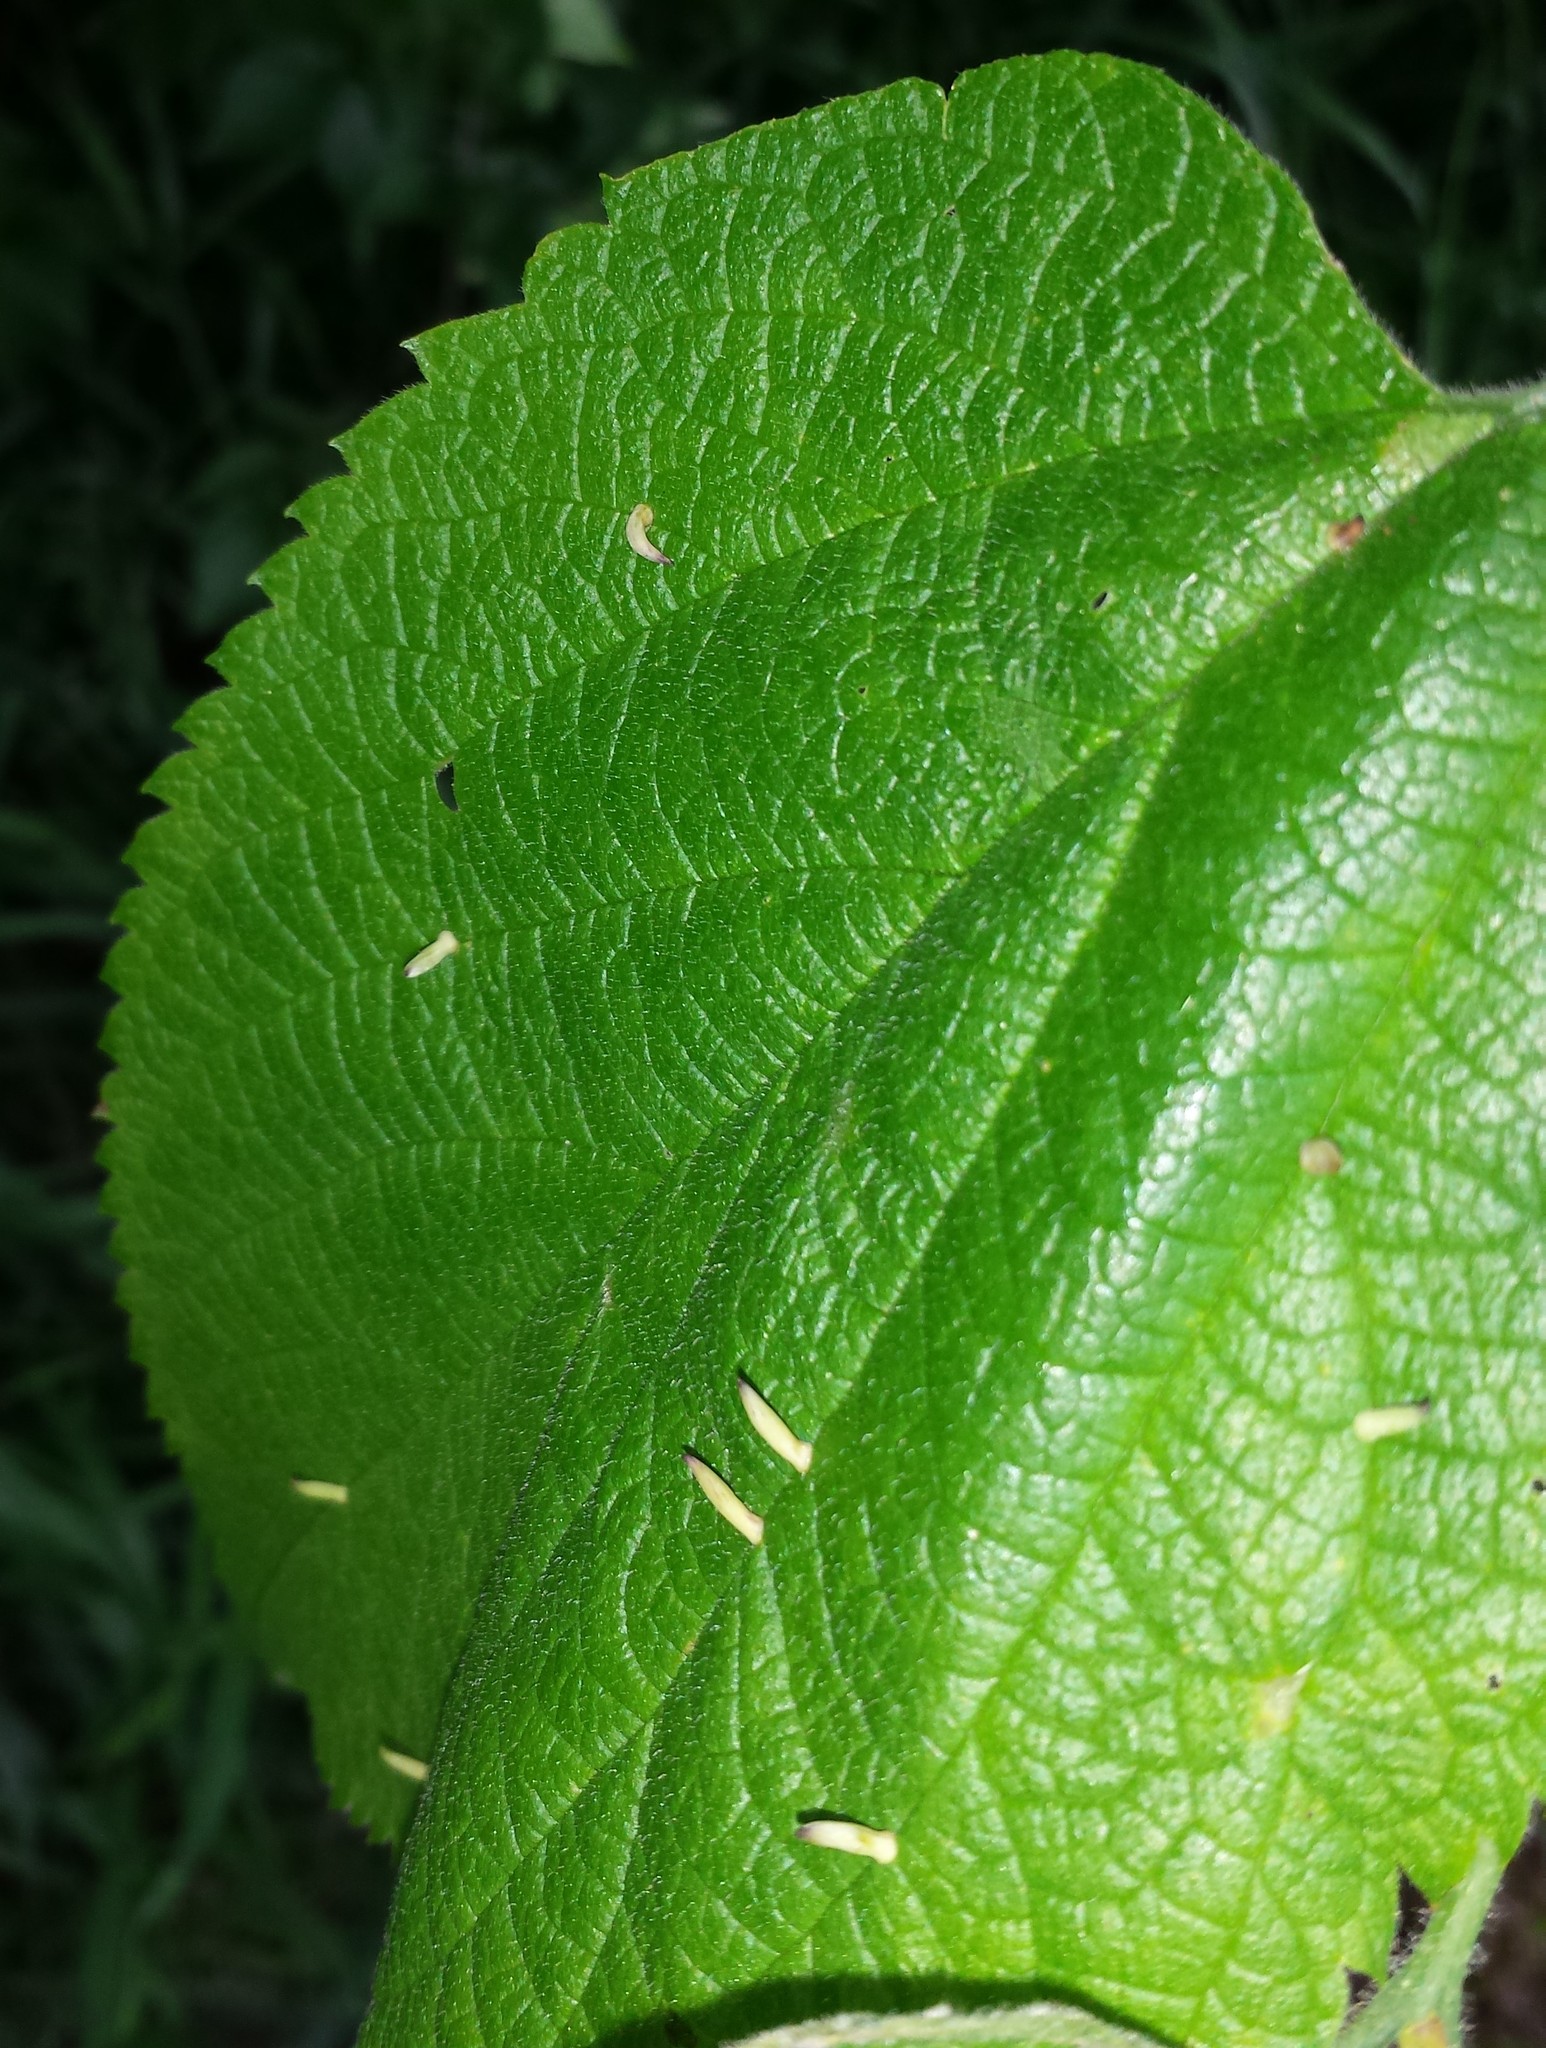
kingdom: Animalia
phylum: Arthropoda
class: Insecta
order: Diptera
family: Cecidomyiidae
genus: Celticecis
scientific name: Celticecis
